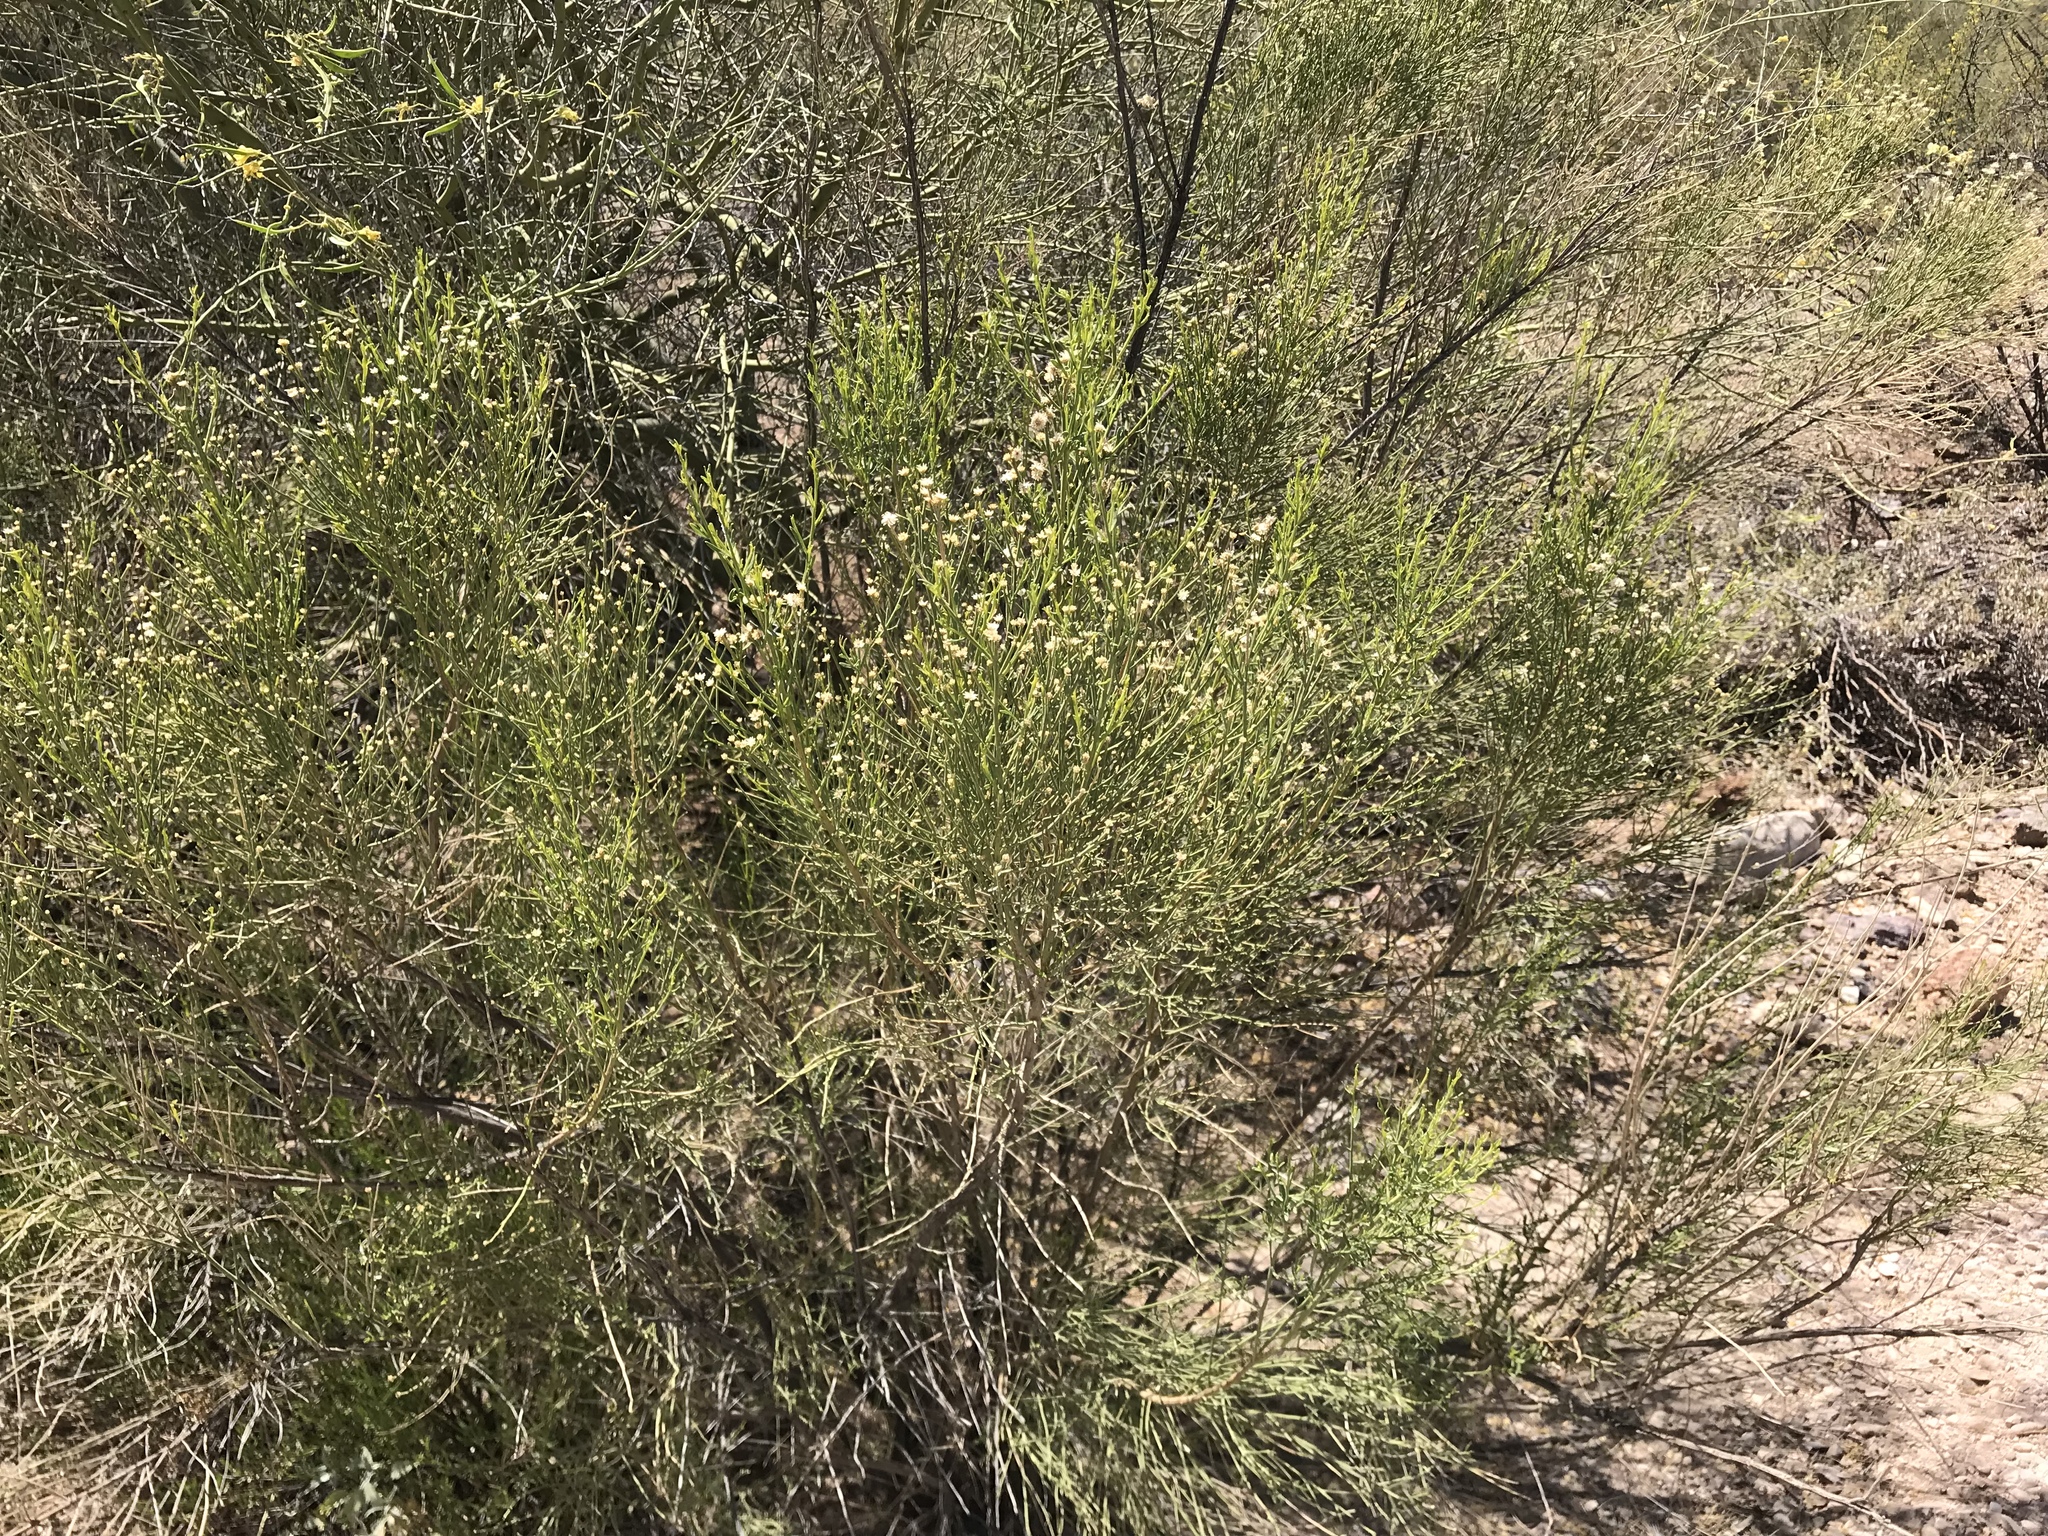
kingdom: Plantae
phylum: Tracheophyta
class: Magnoliopsida
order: Asterales
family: Asteraceae
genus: Baccharis
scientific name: Baccharis sarothroides
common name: Desert-broom
